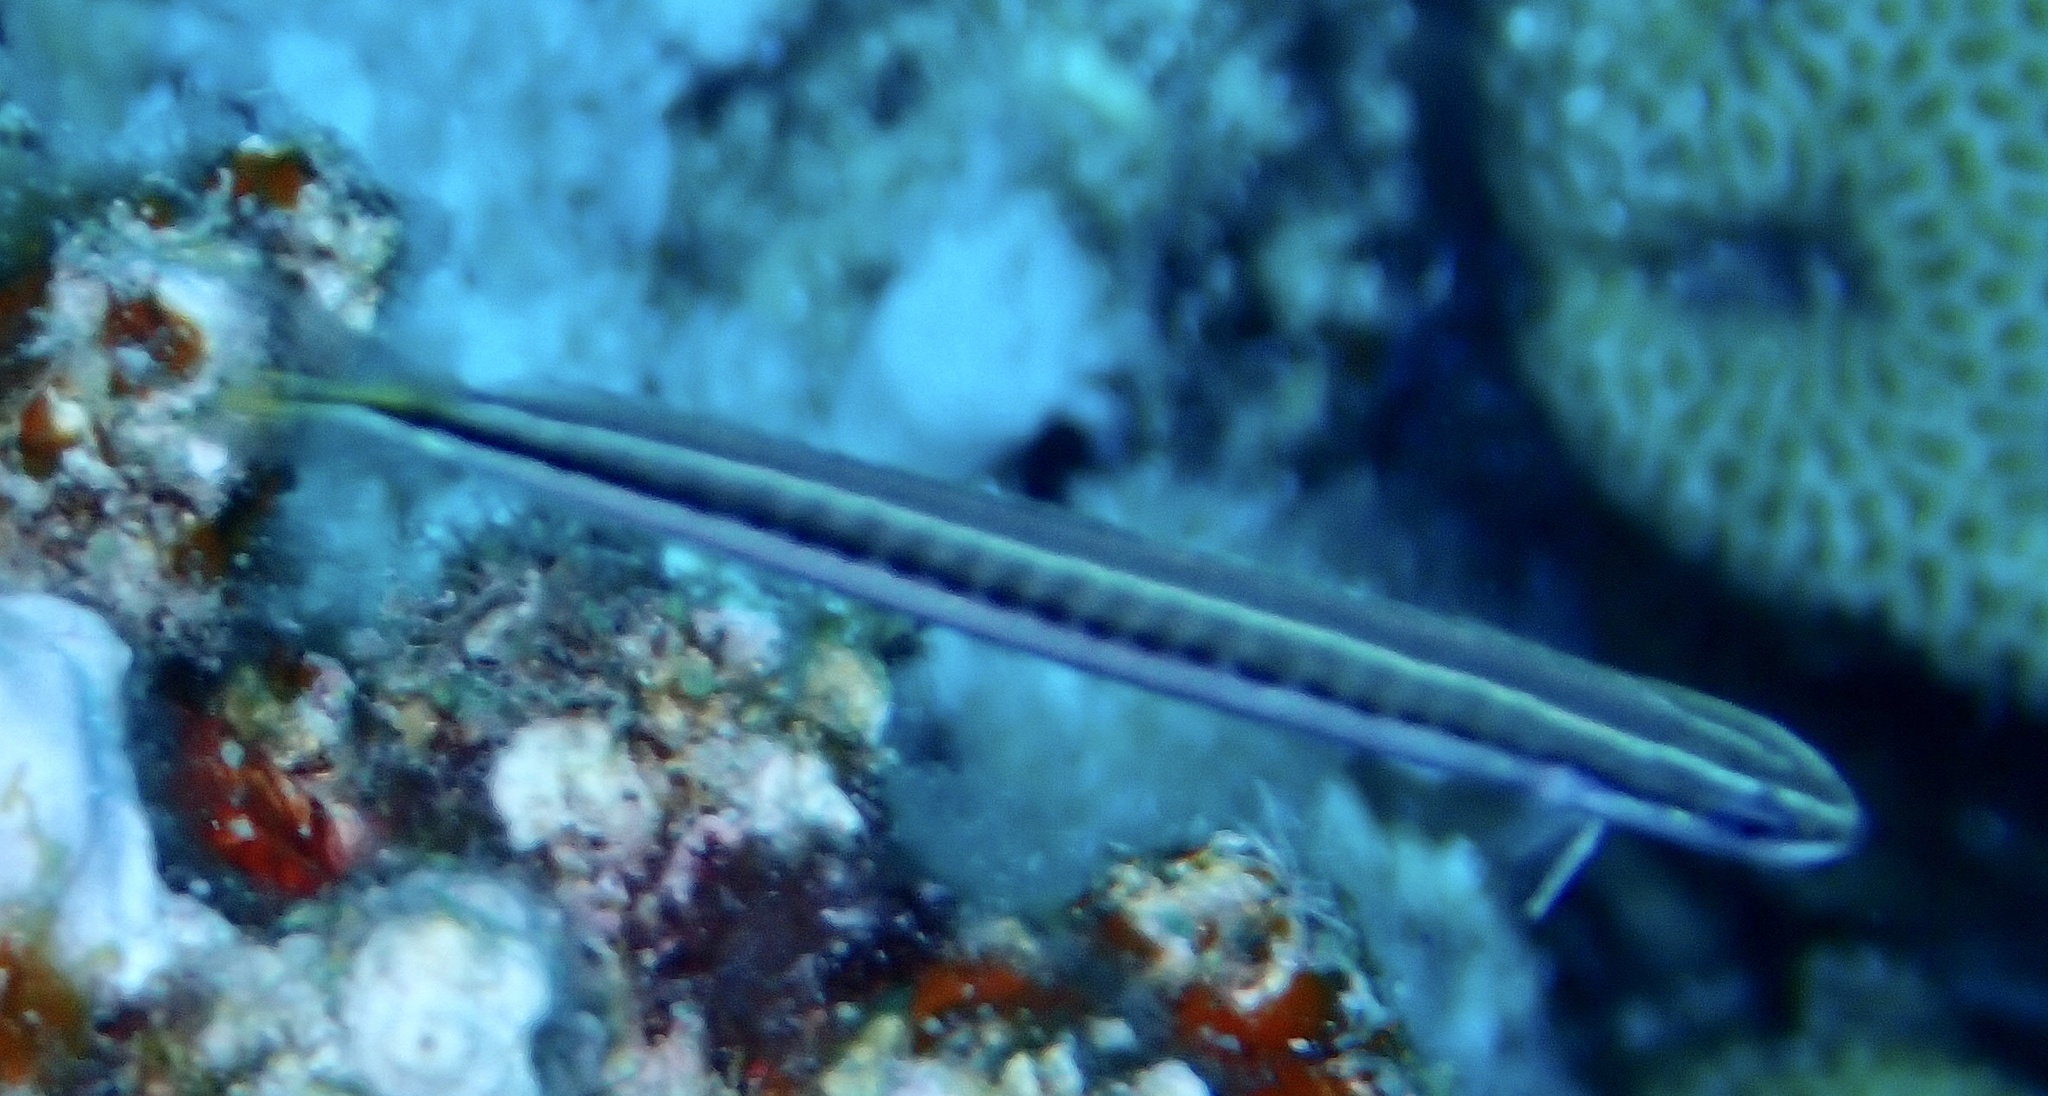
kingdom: Animalia
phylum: Chordata
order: Perciformes
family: Blenniidae
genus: Plagiotremus
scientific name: Plagiotremus tapeinosoma
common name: Hit and run blenny
